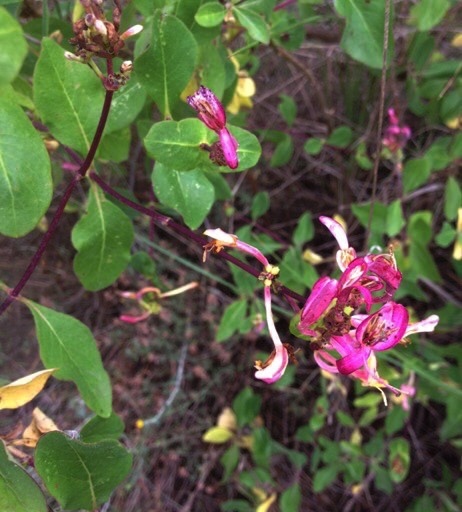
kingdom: Plantae
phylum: Tracheophyta
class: Magnoliopsida
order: Dipsacales
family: Caprifoliaceae
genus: Lonicera
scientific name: Lonicera etrusca
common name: Etruscan honeysuckle
